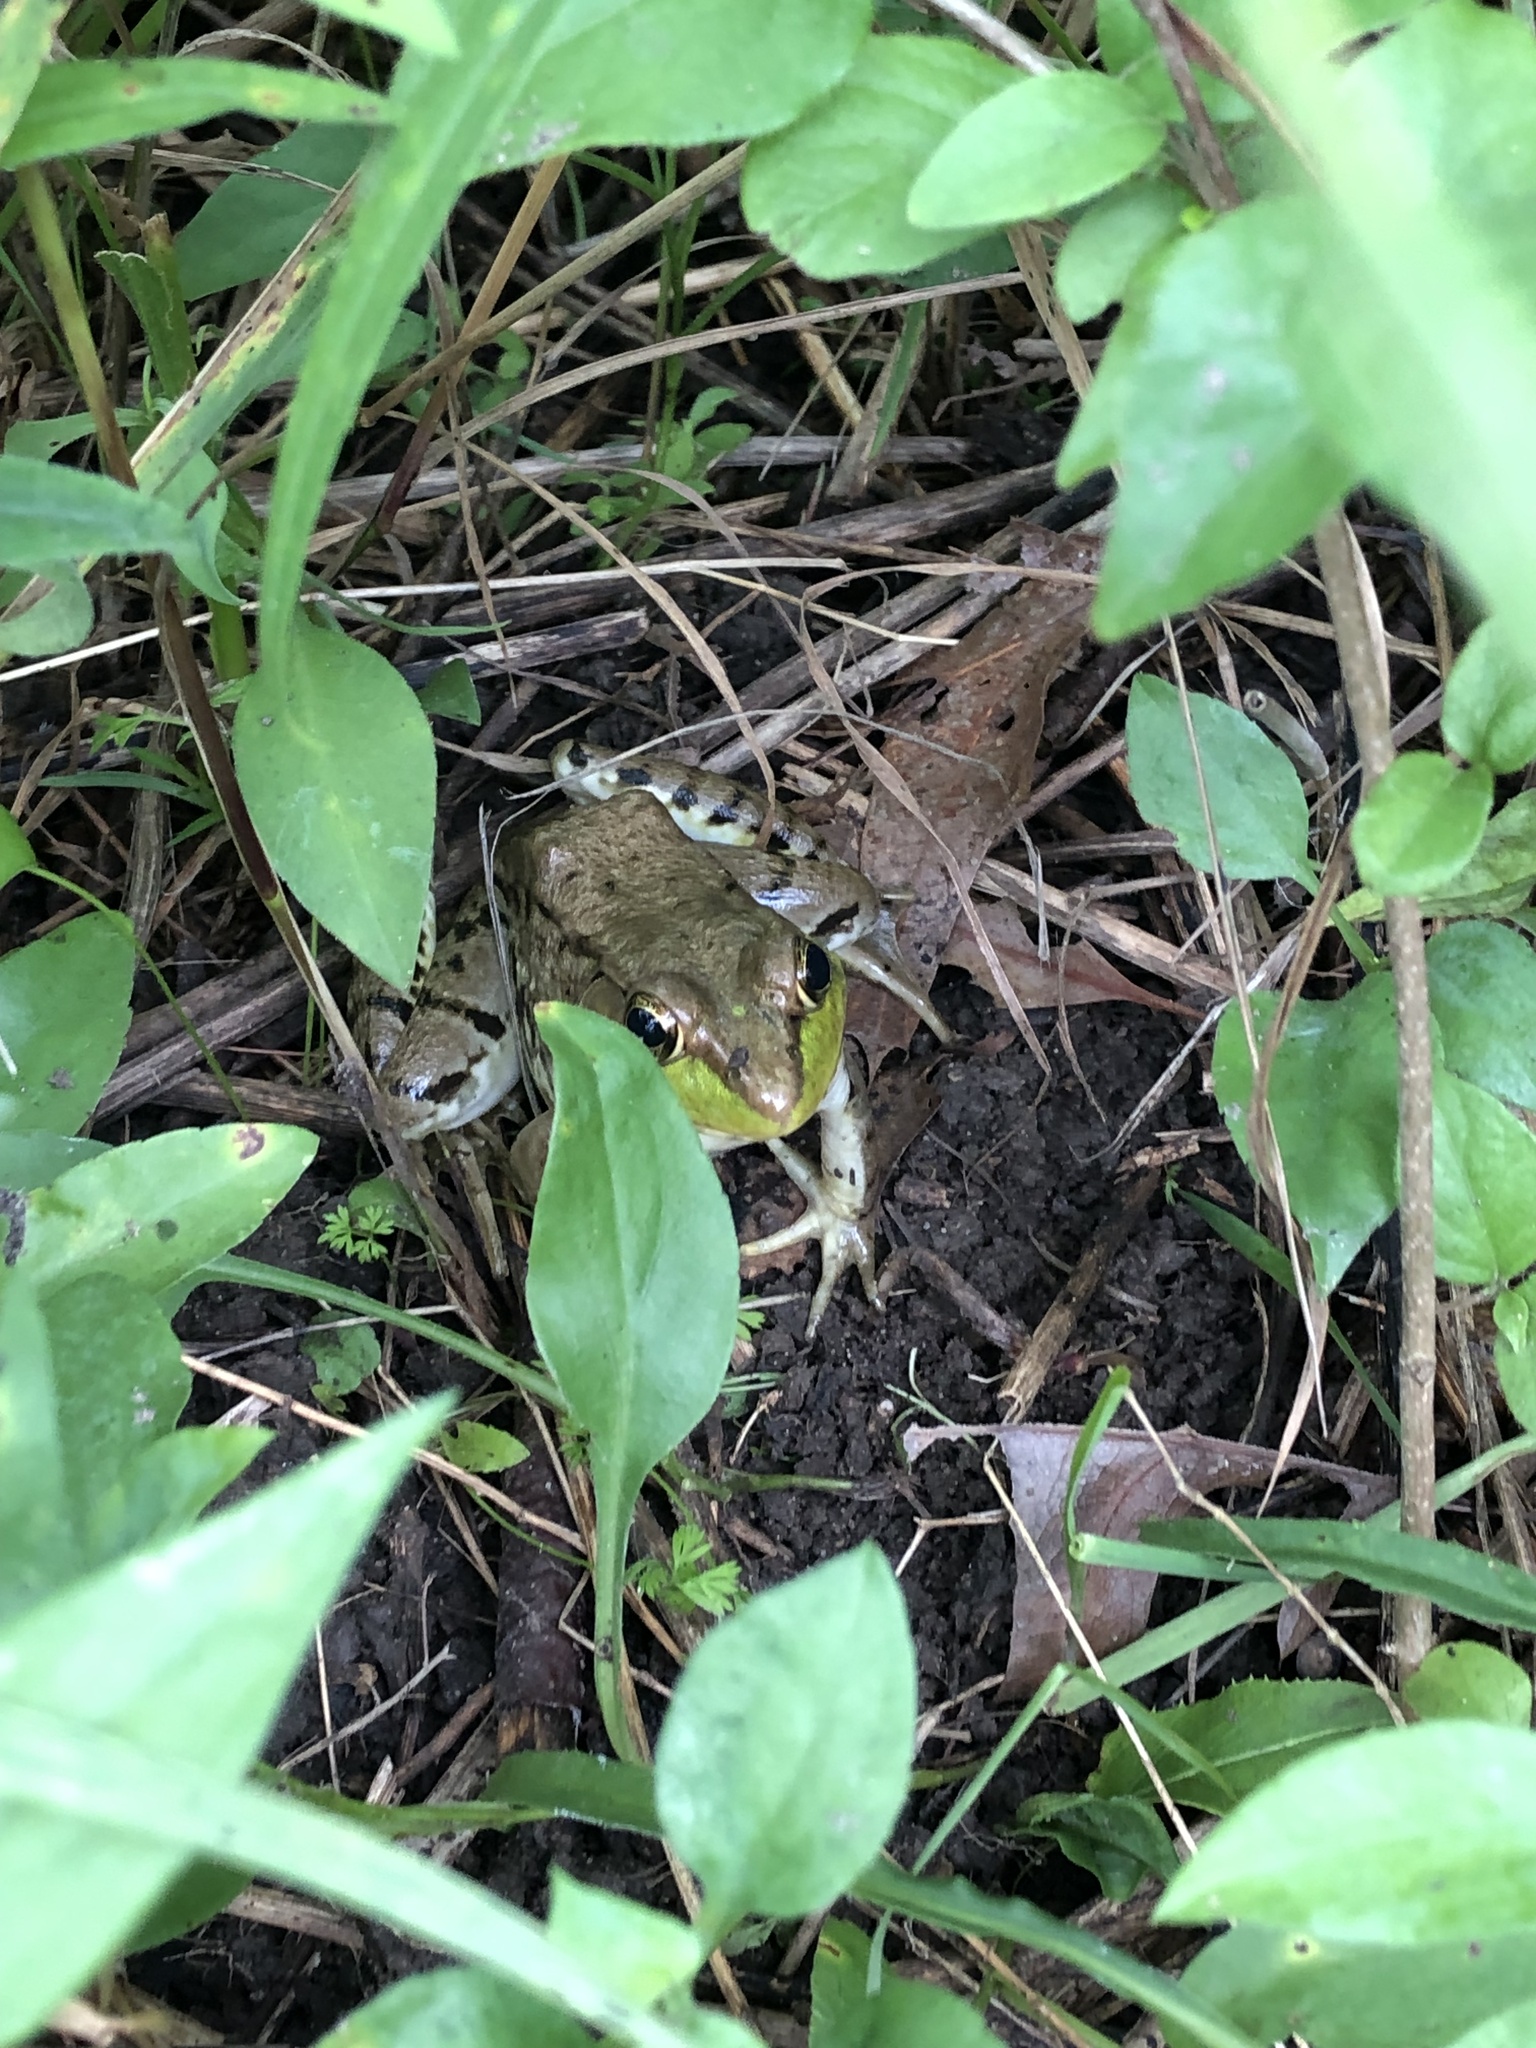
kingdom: Animalia
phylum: Chordata
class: Amphibia
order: Anura
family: Ranidae
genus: Lithobates
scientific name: Lithobates clamitans
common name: Green frog
